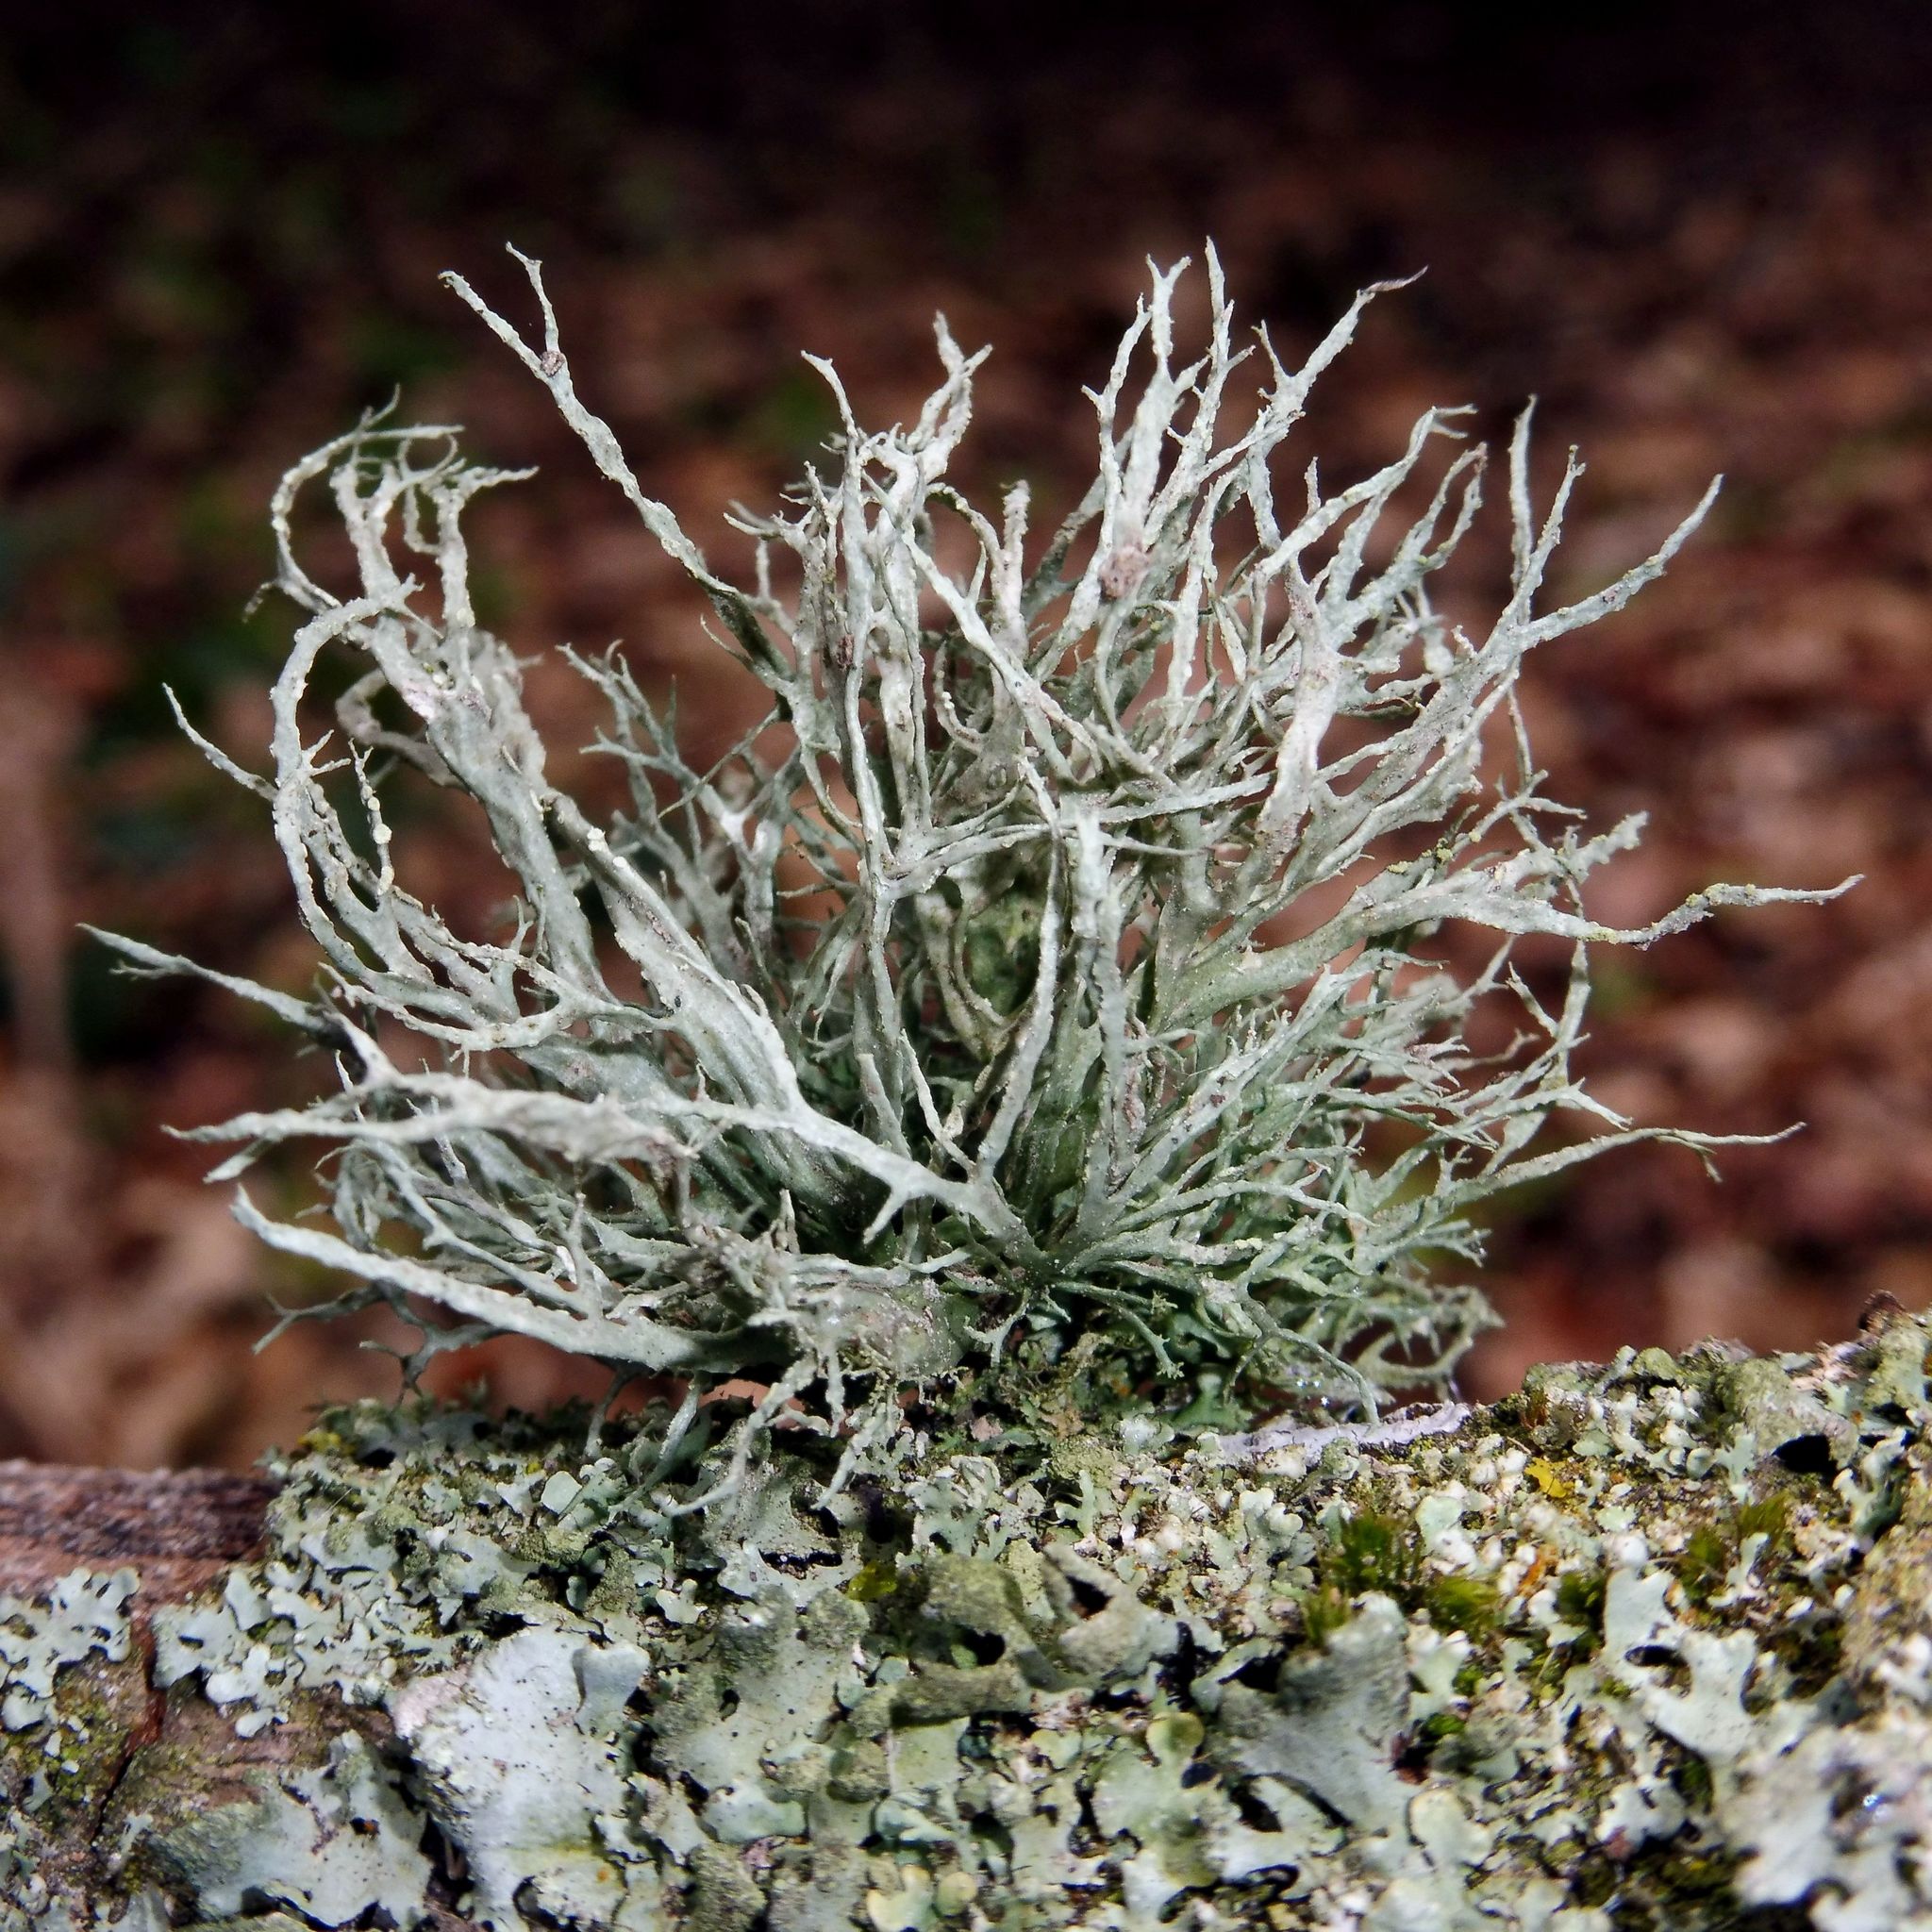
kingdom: Fungi
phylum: Ascomycota
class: Lecanoromycetes
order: Lecanorales
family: Ramalinaceae
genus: Ramalina
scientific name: Ramalina farinacea
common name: Farinose cartilage lichen
